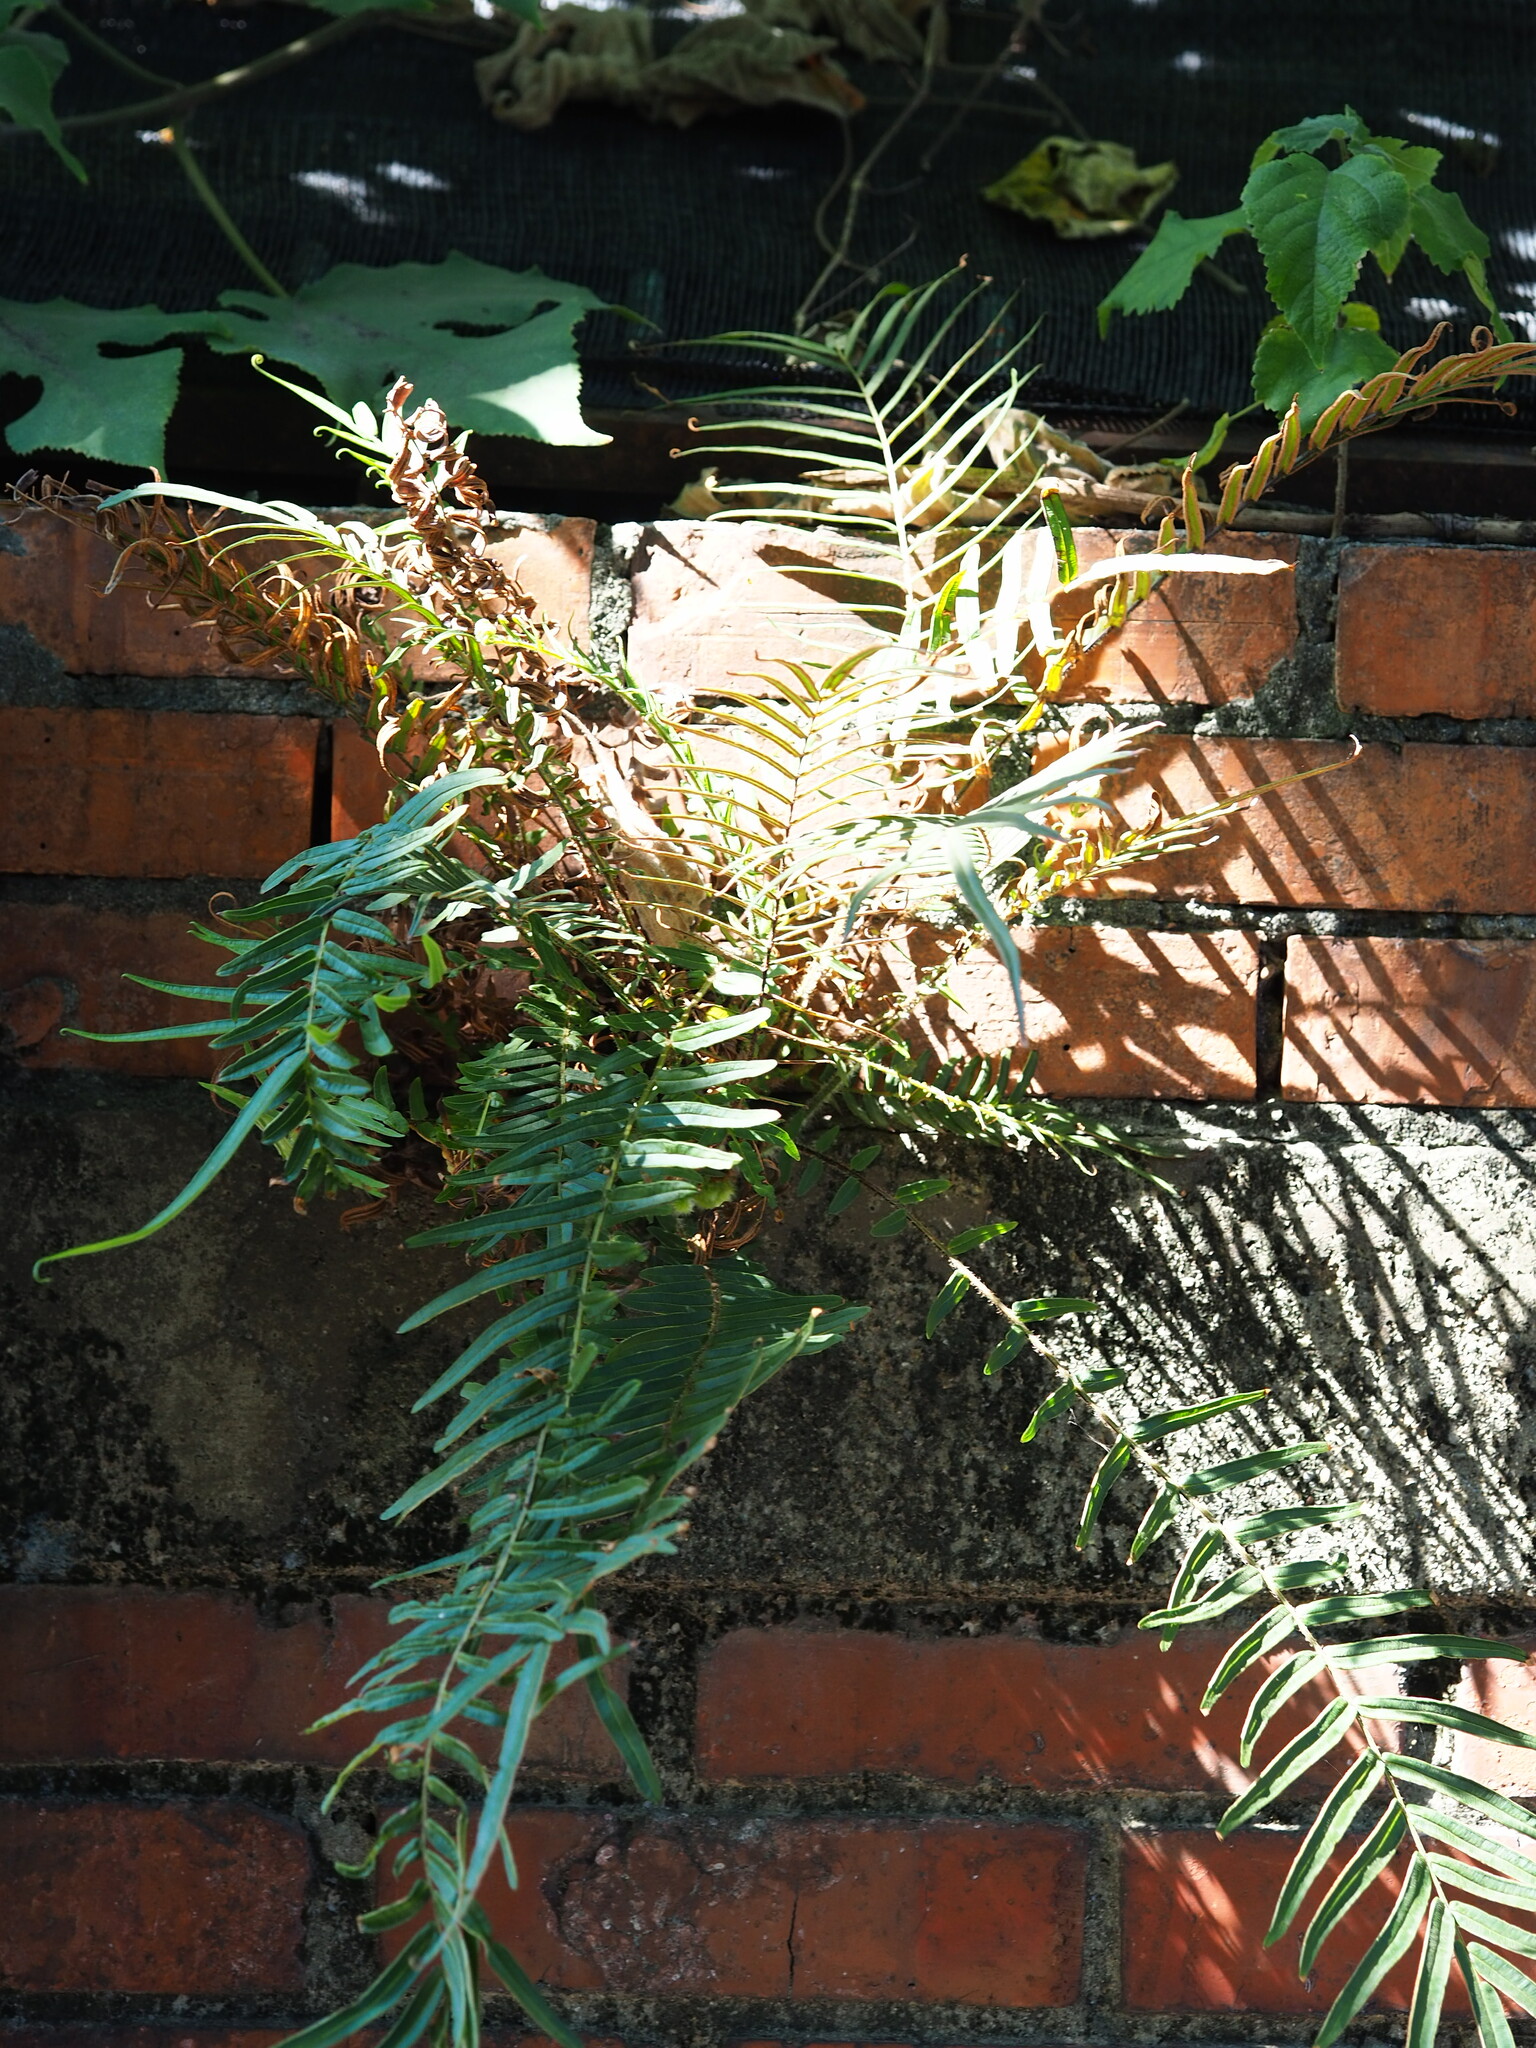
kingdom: Plantae
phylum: Tracheophyta
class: Polypodiopsida
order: Polypodiales
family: Pteridaceae
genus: Pteris
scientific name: Pteris vittata
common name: Ladder brake
